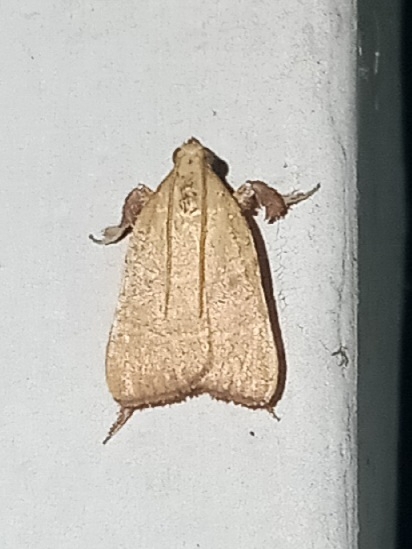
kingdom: Animalia
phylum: Arthropoda
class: Insecta
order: Lepidoptera
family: Pyralidae
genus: Parachma
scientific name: Parachma ochracealis
